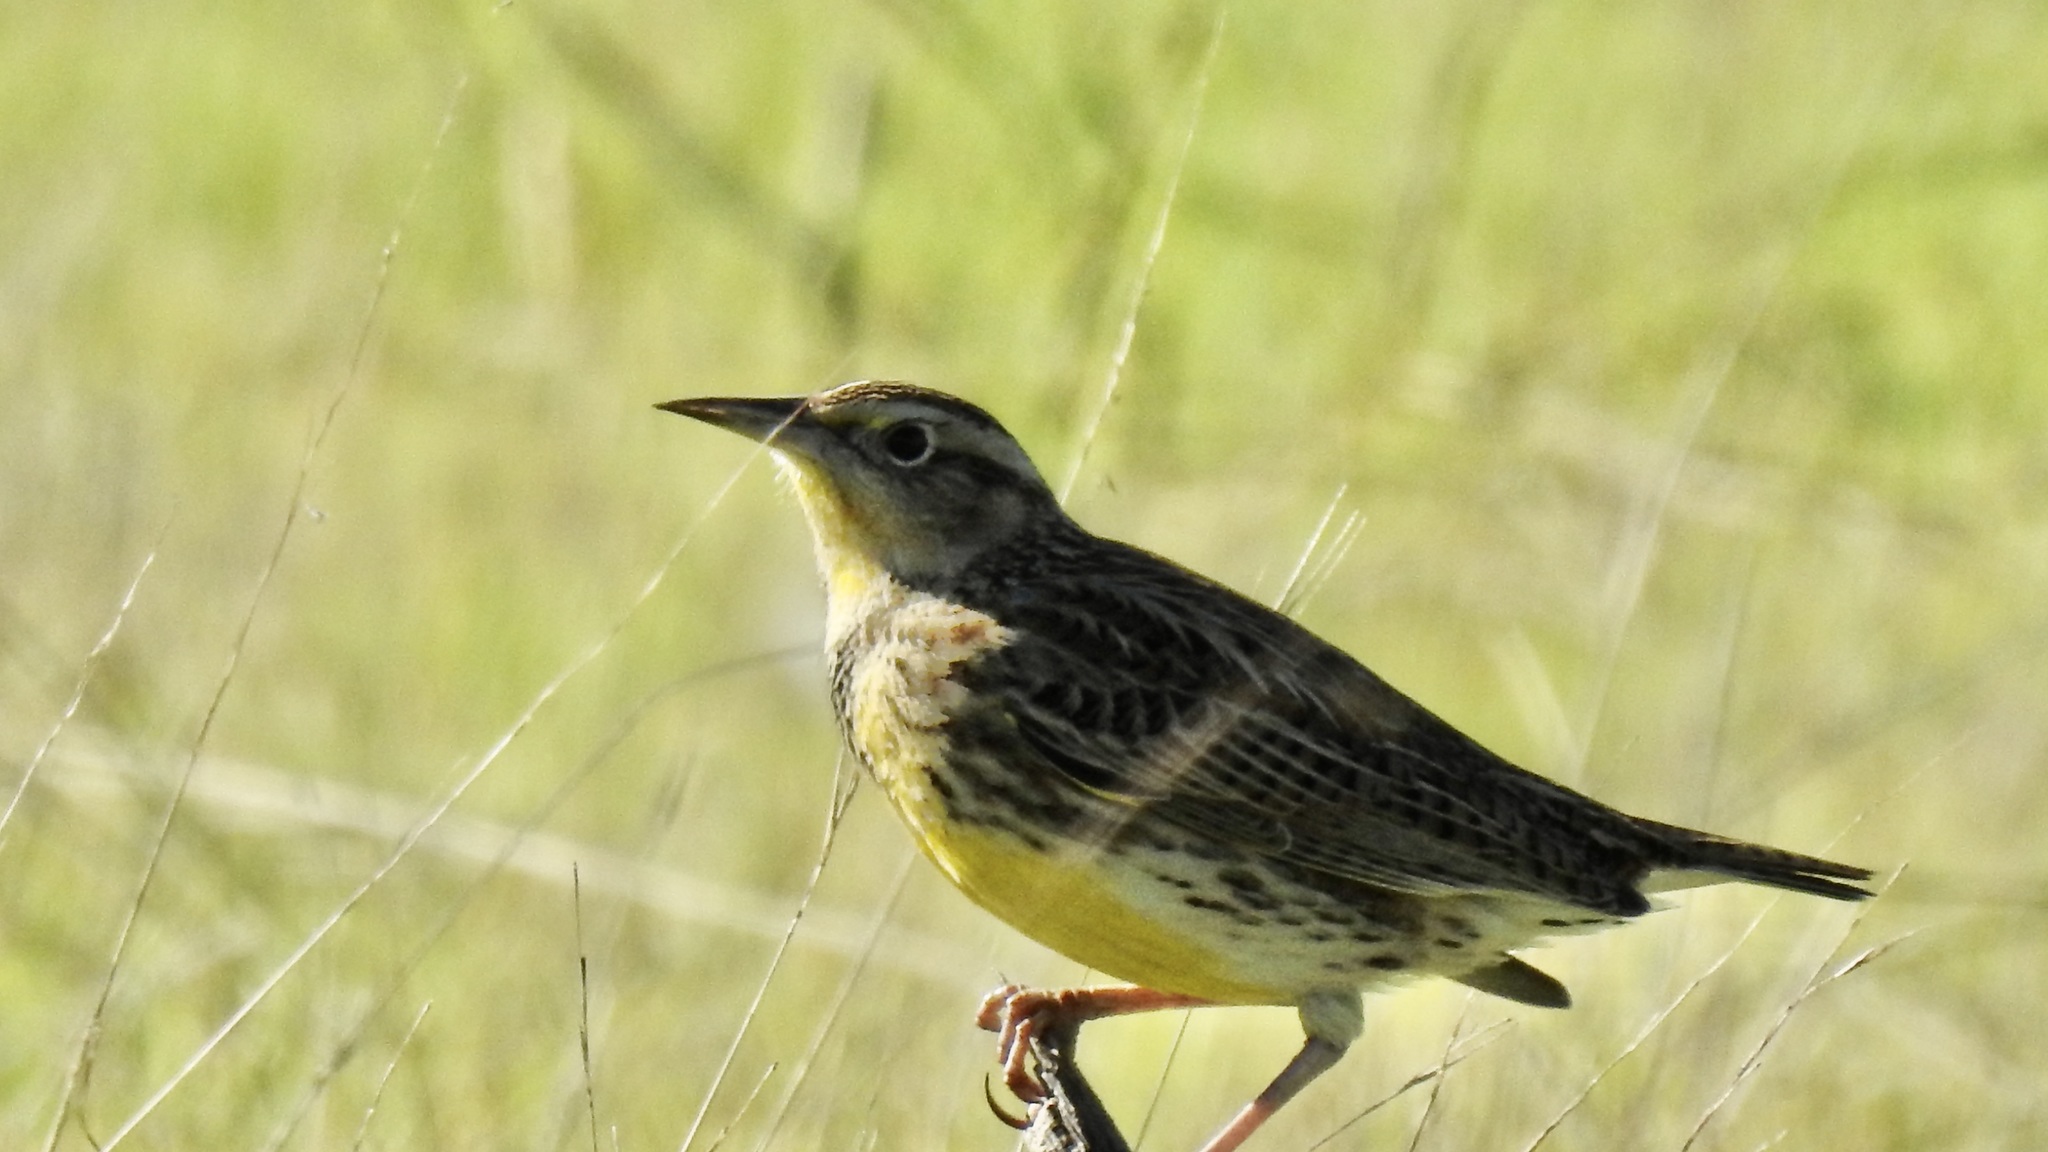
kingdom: Animalia
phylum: Chordata
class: Aves
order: Passeriformes
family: Icteridae
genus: Sturnella
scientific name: Sturnella neglecta
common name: Western meadowlark
